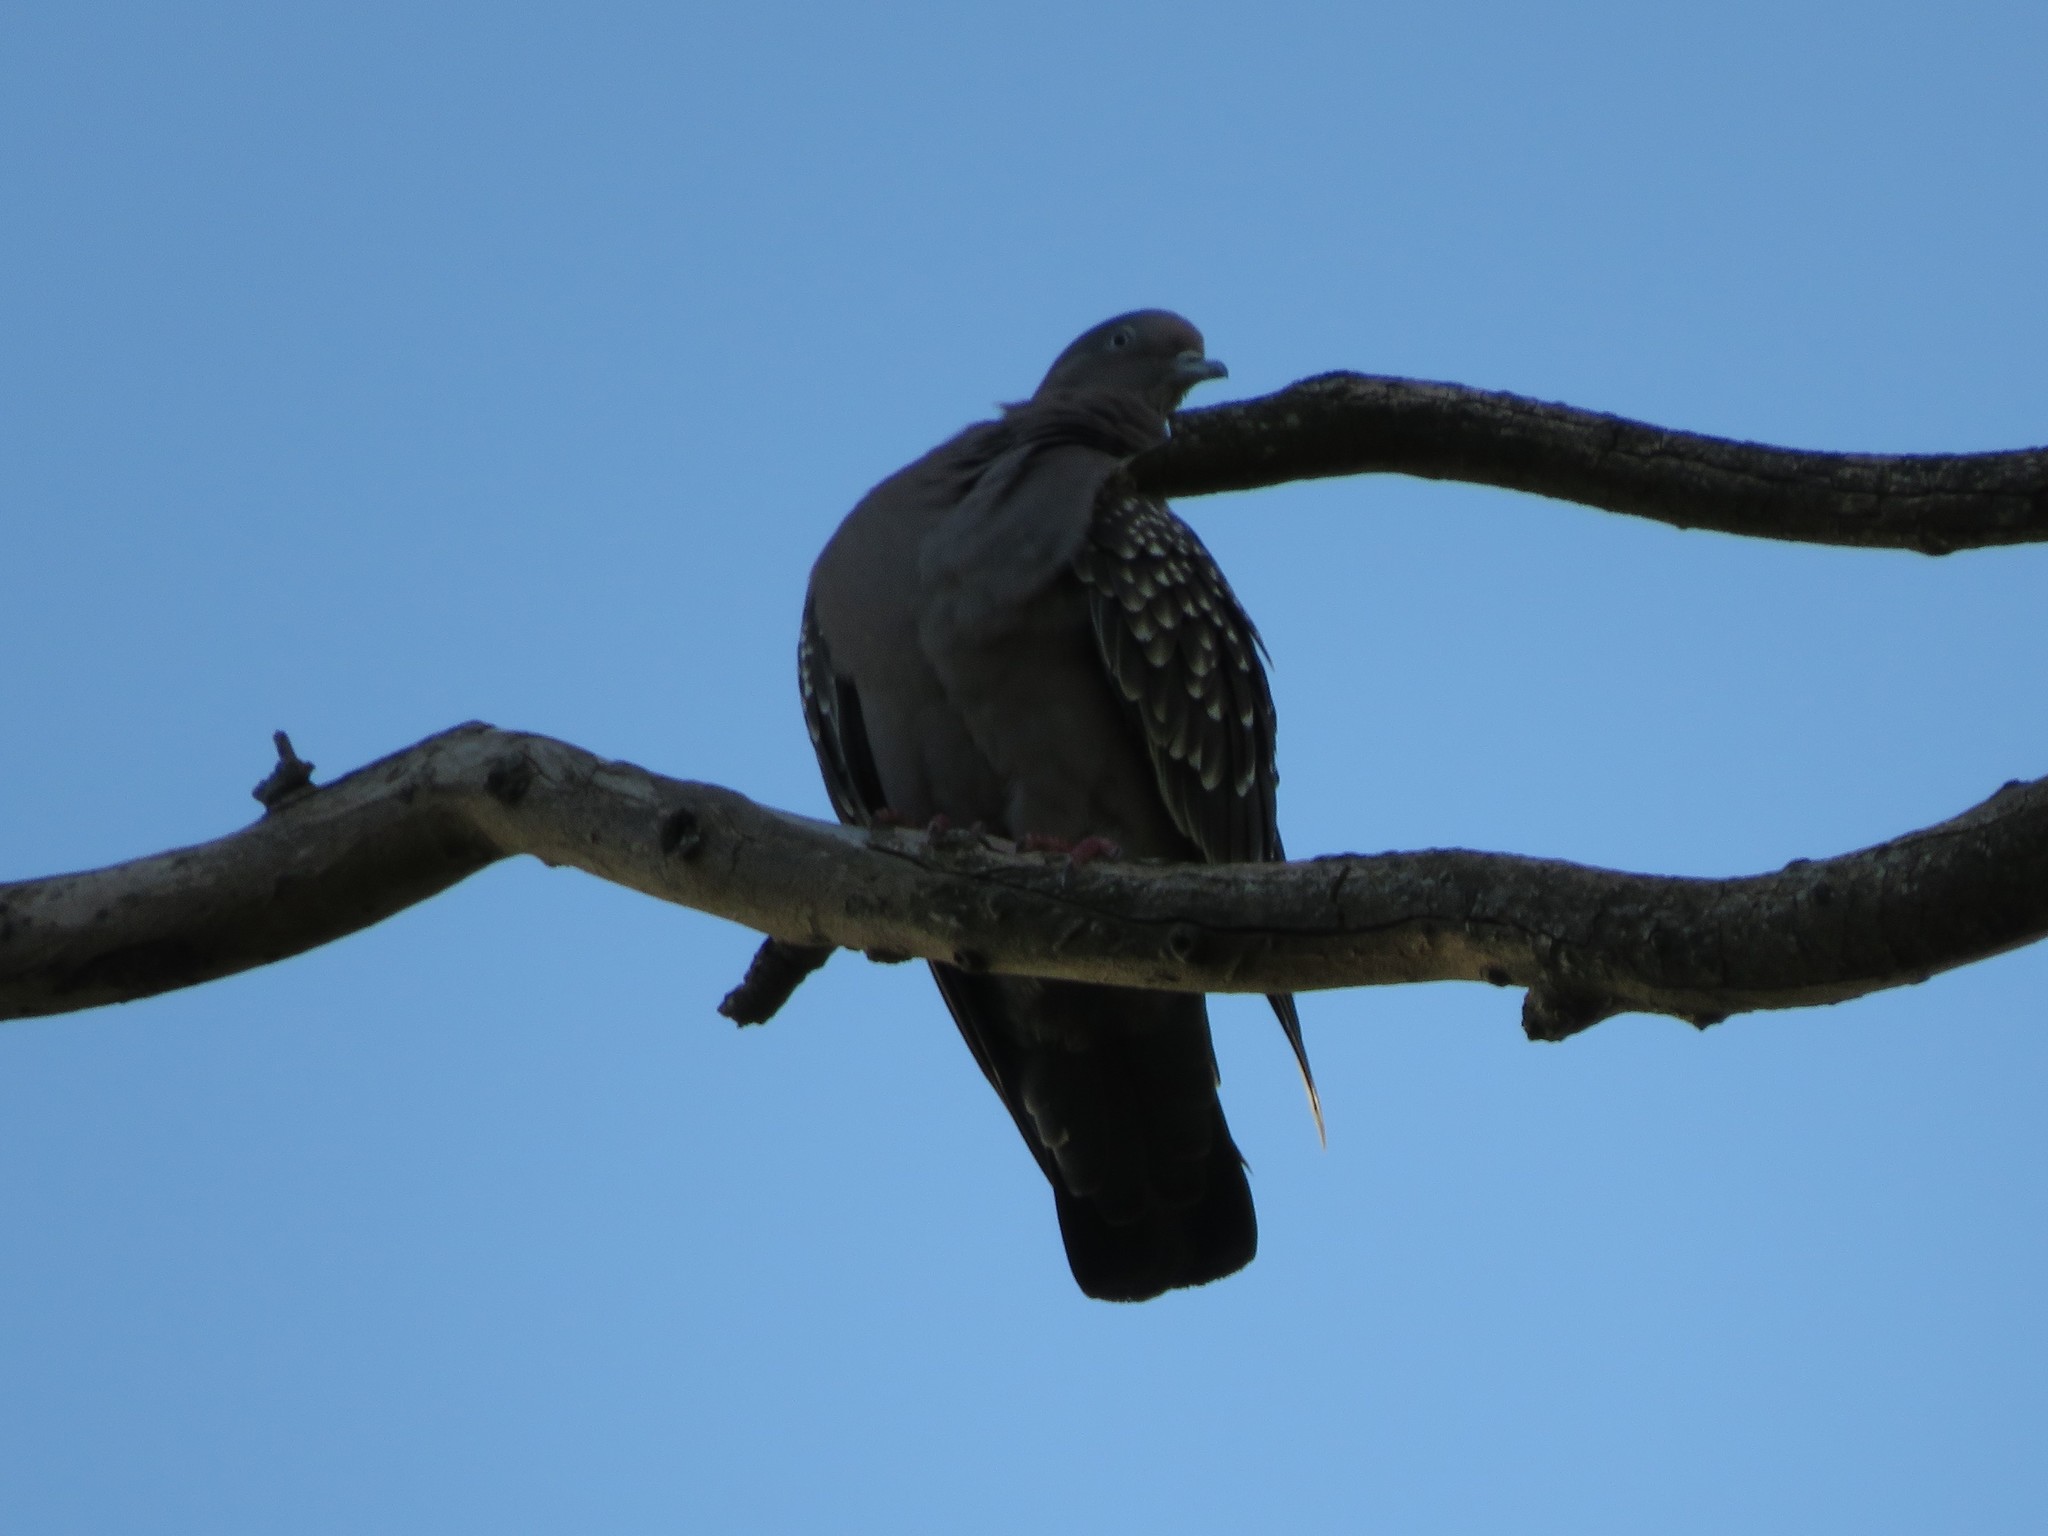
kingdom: Animalia
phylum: Chordata
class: Aves
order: Columbiformes
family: Columbidae
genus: Patagioenas
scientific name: Patagioenas maculosa
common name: Spot-winged pigeon
